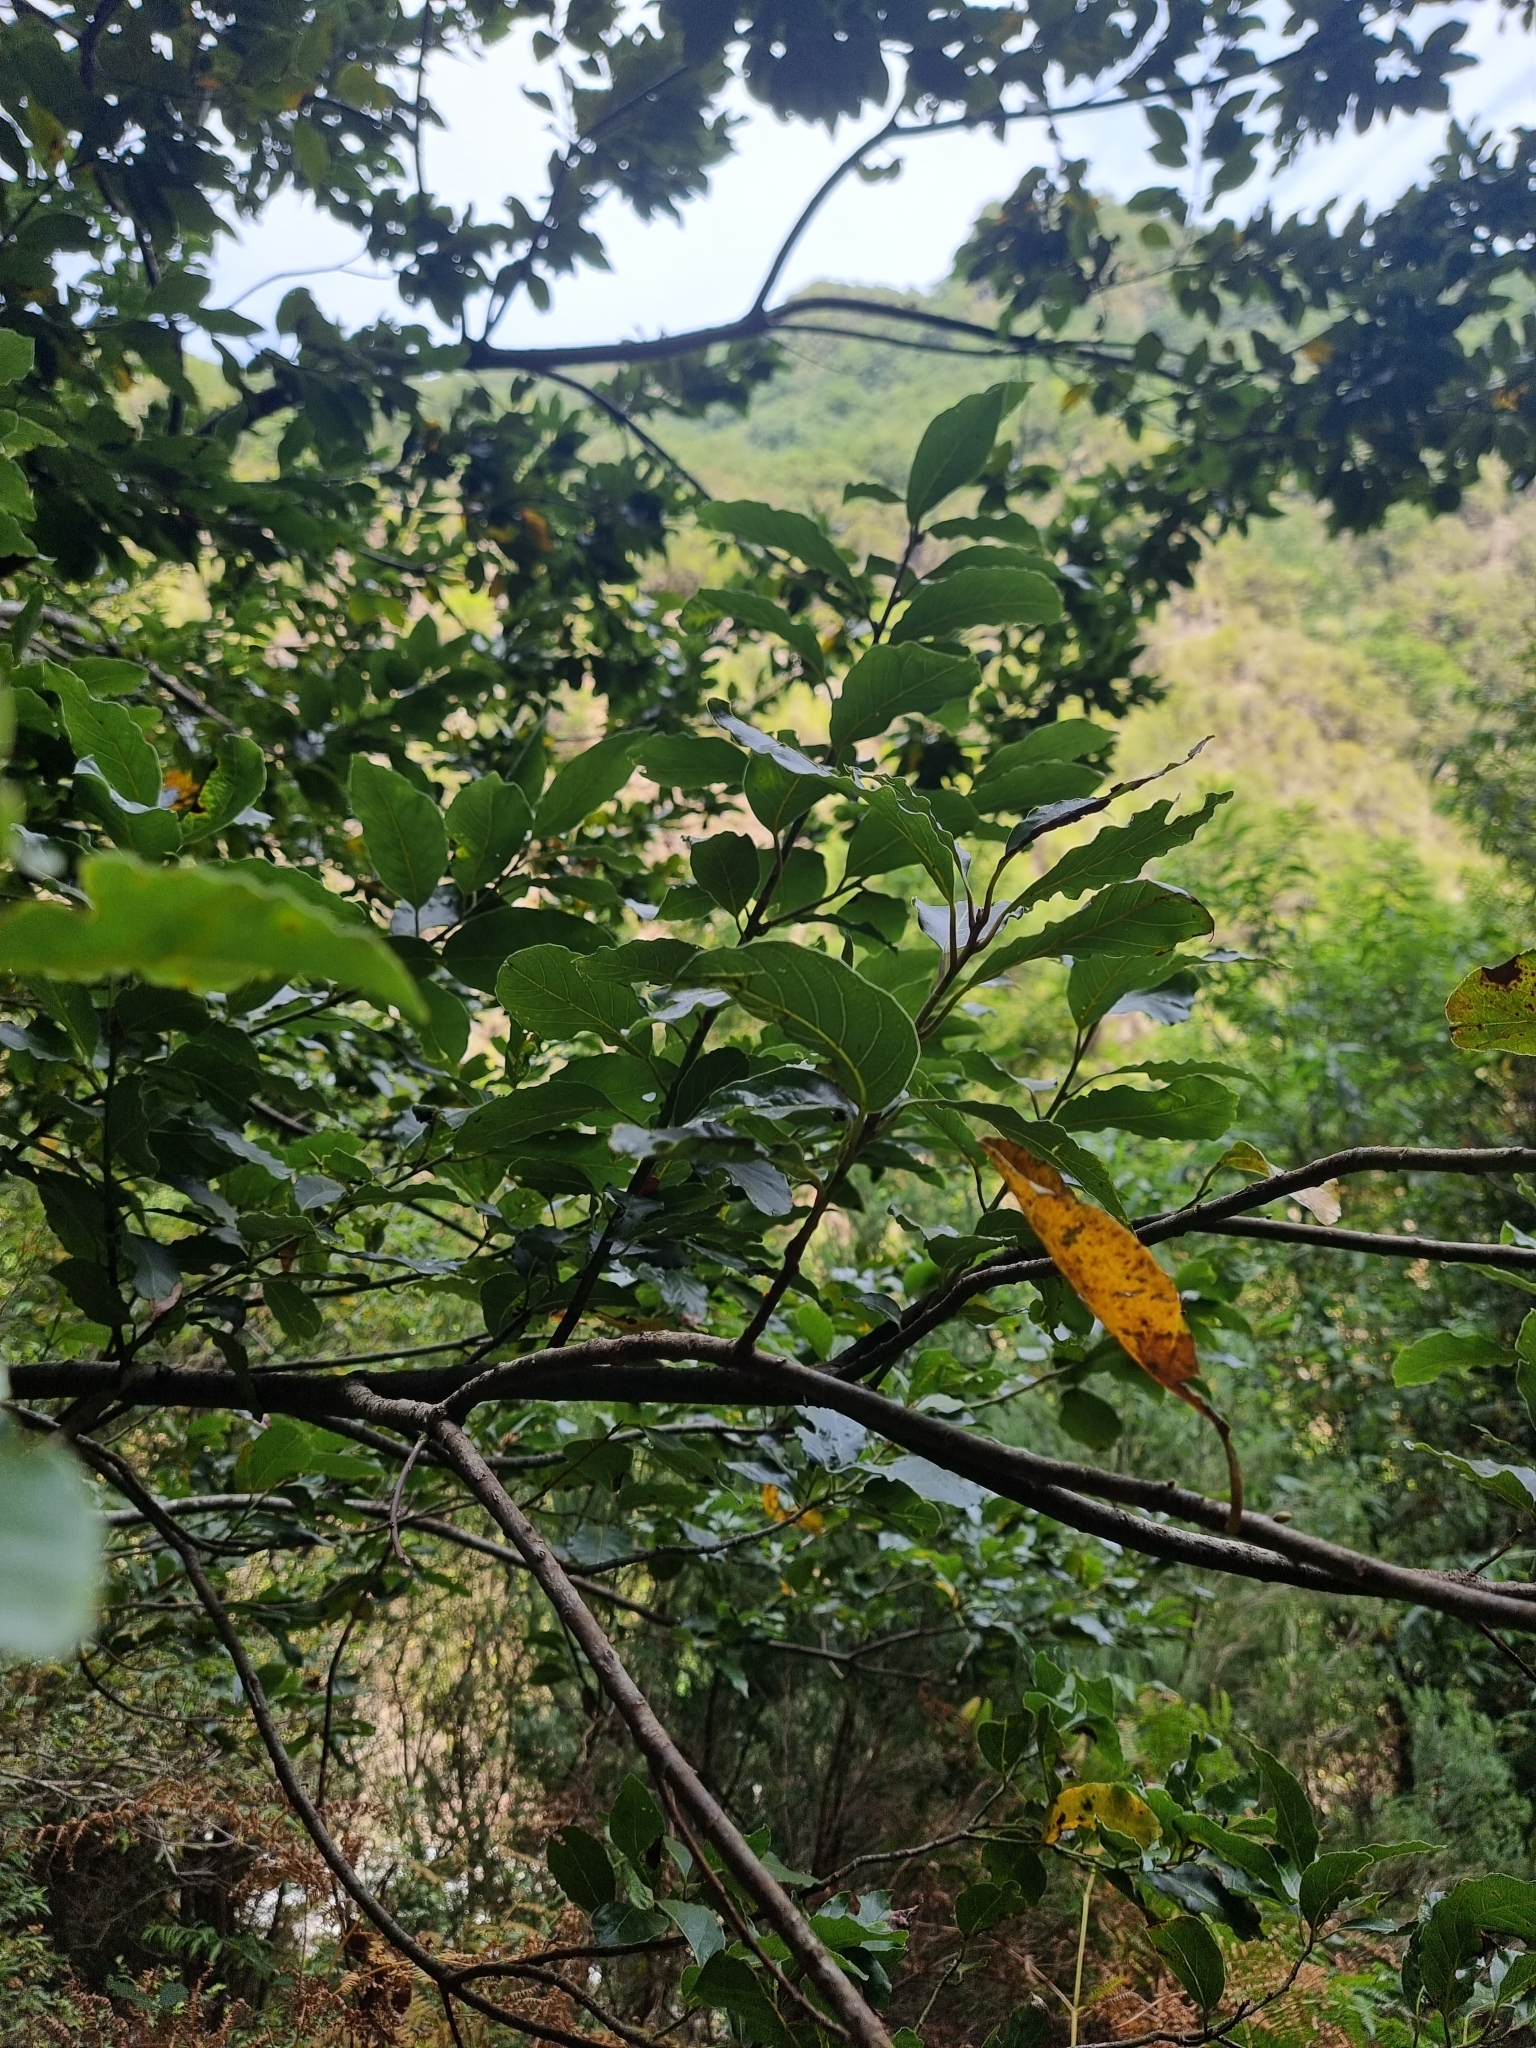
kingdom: Plantae
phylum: Tracheophyta
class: Magnoliopsida
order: Laurales
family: Lauraceae
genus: Laurus
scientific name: Laurus novocanariensis
